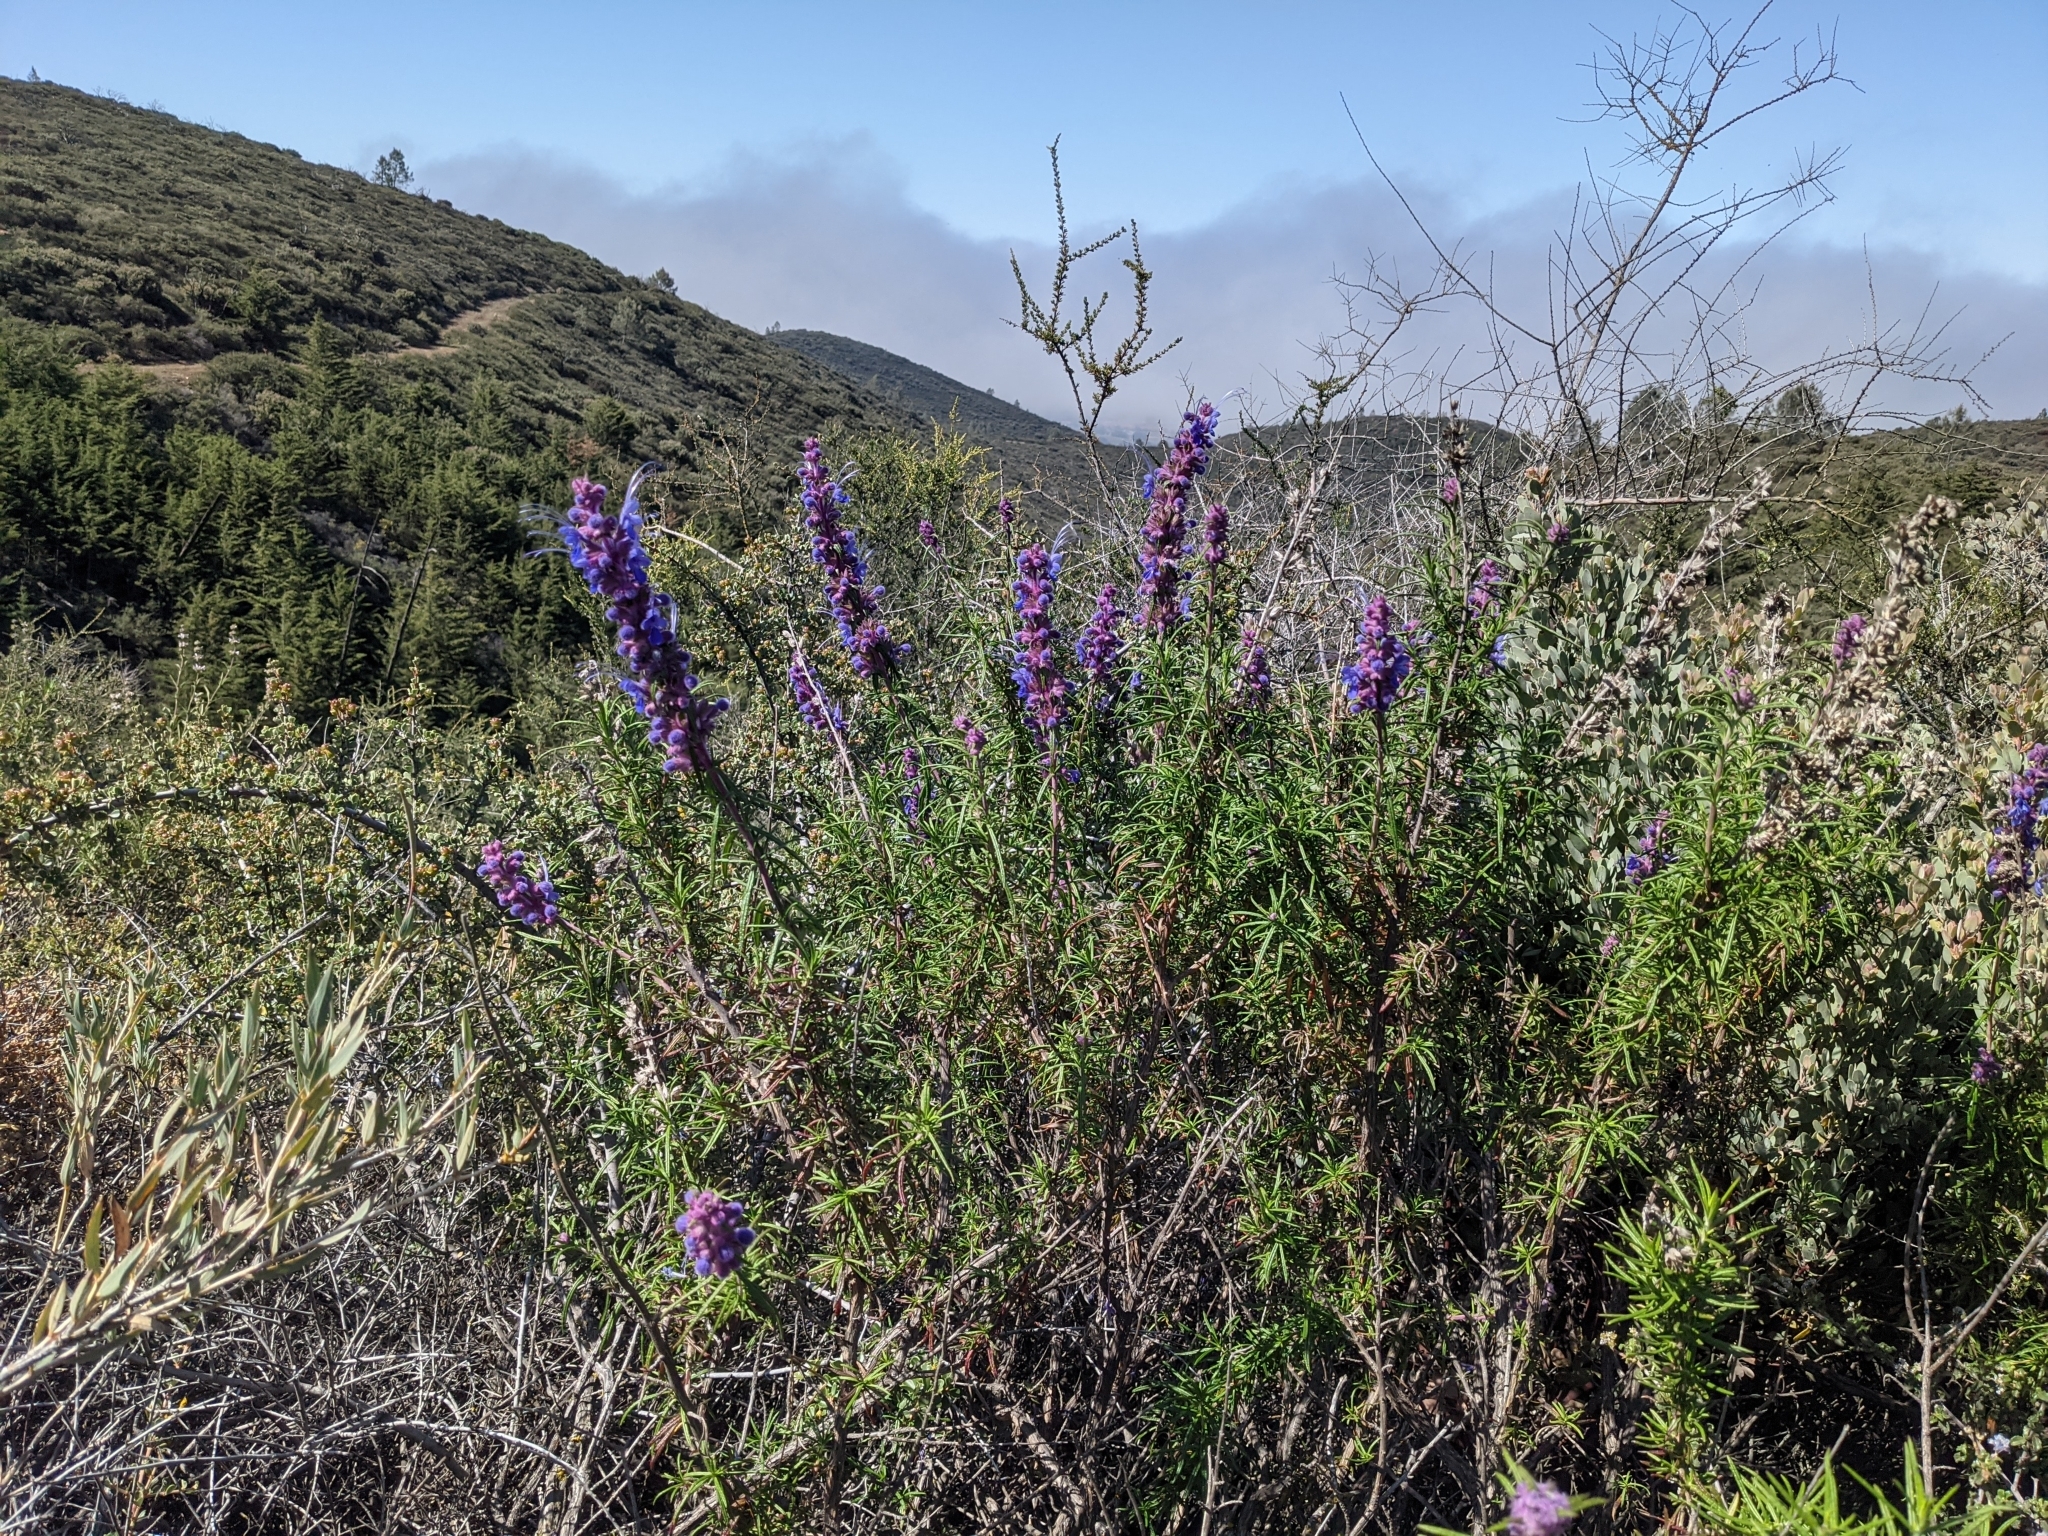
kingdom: Plantae
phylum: Tracheophyta
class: Magnoliopsida
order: Lamiales
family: Lamiaceae
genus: Trichostema
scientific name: Trichostema lanatum
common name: Woolly bluecurls
